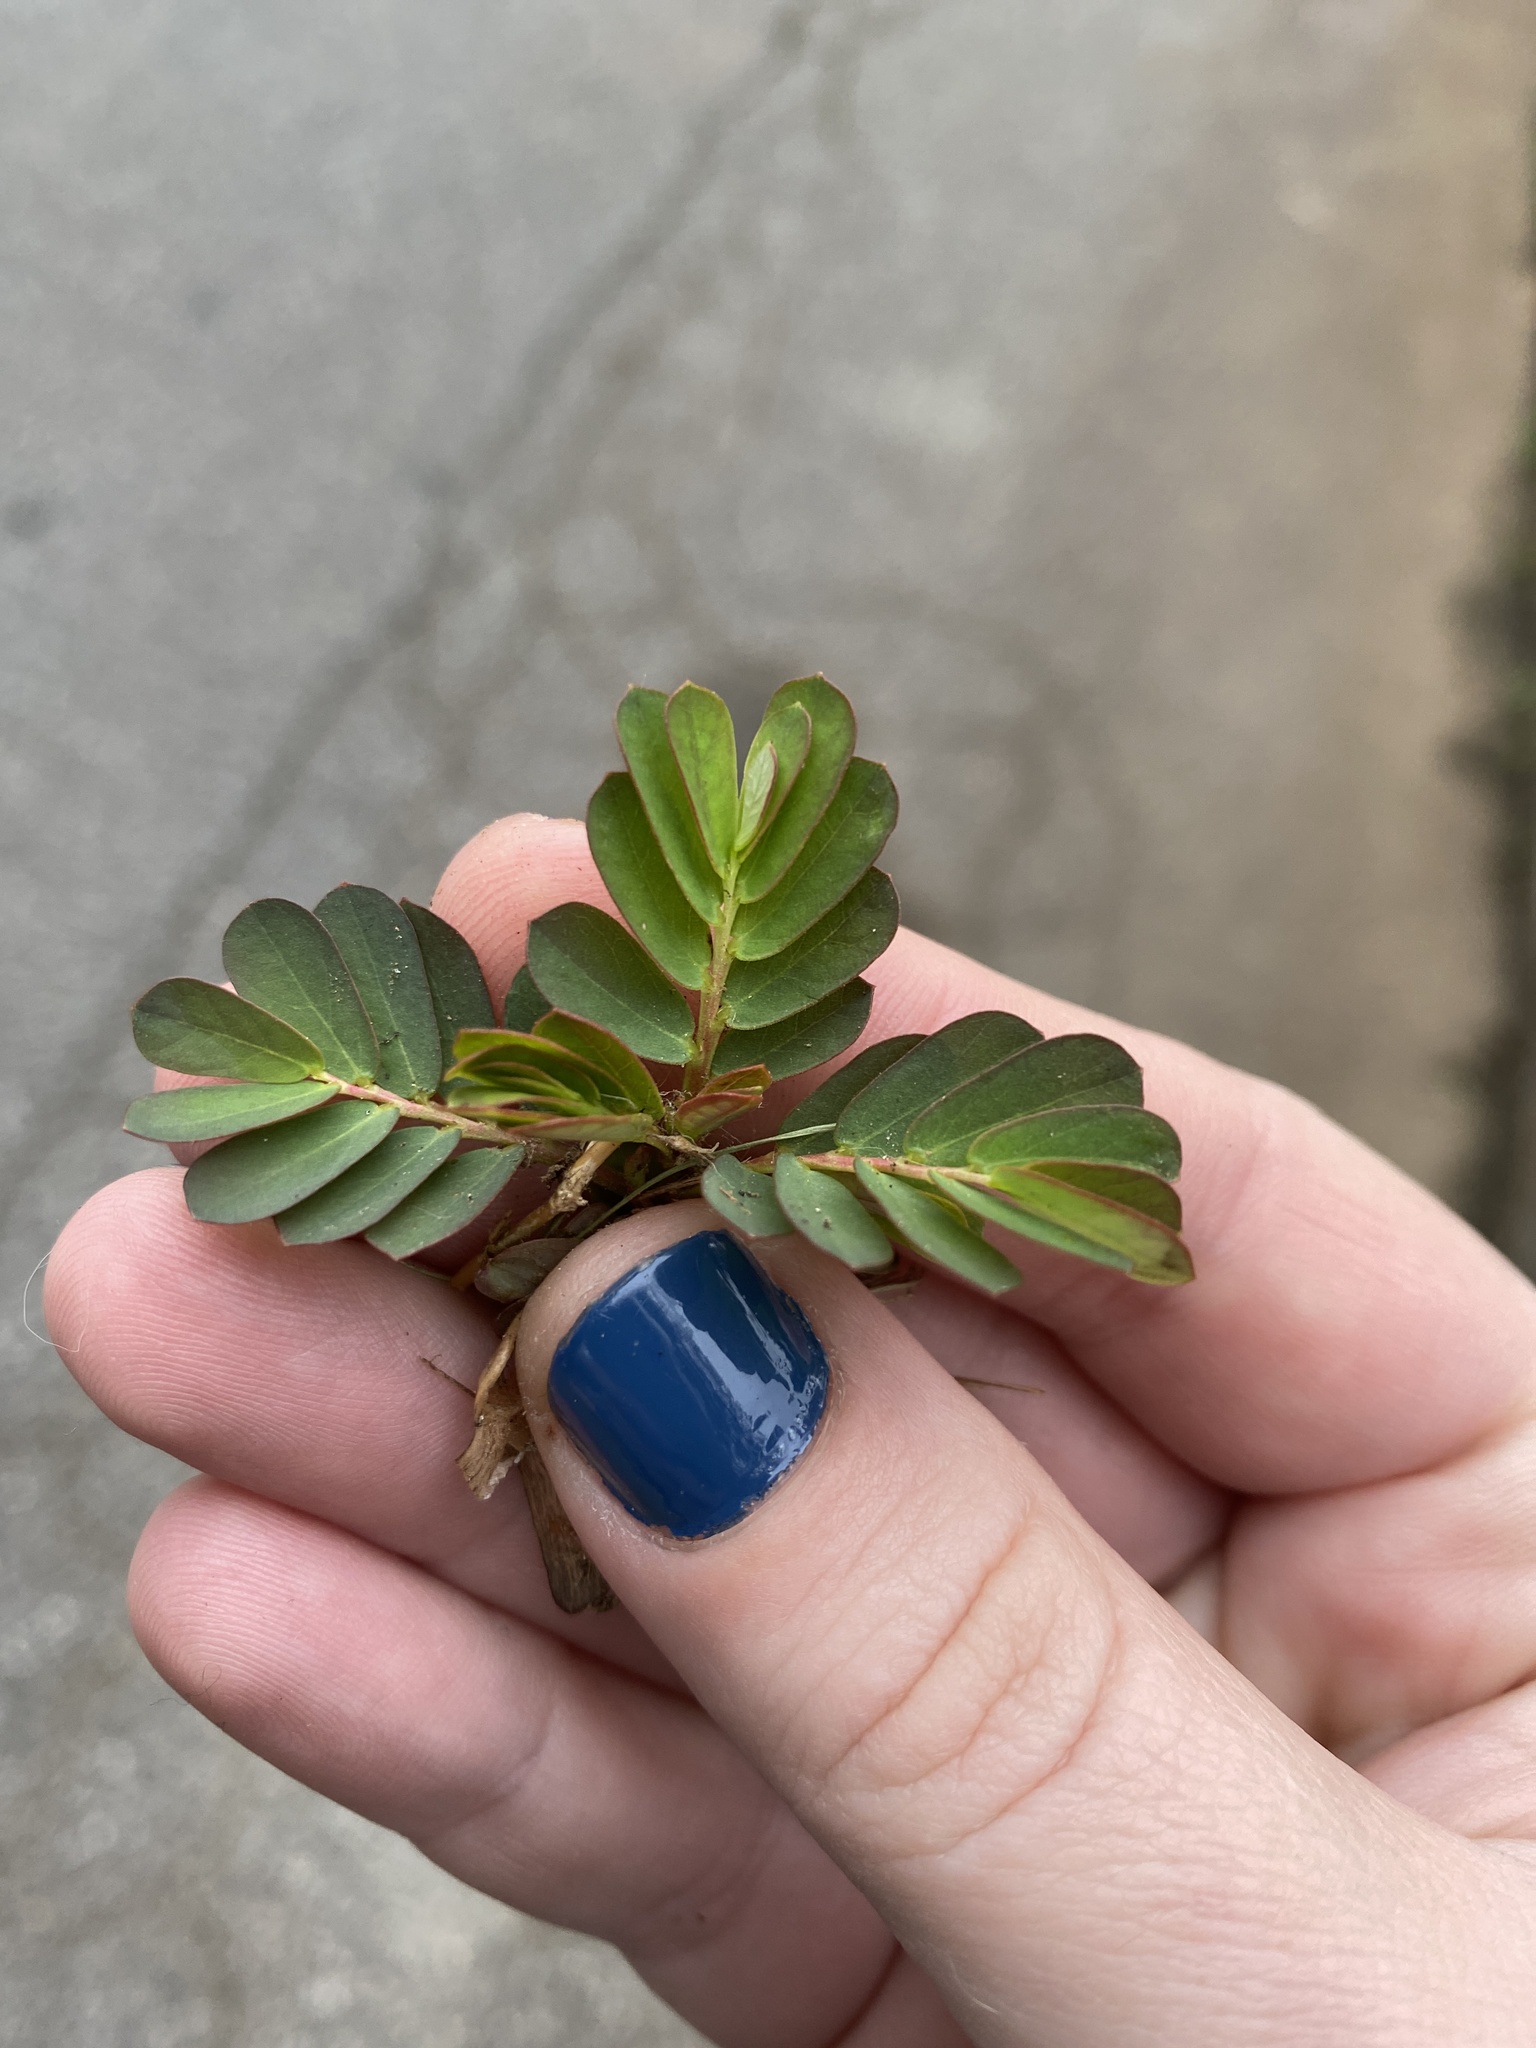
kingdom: Plantae
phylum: Tracheophyta
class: Magnoliopsida
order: Malpighiales
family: Phyllanthaceae
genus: Phyllanthus
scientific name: Phyllanthus urinaria
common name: Chamber bitter
